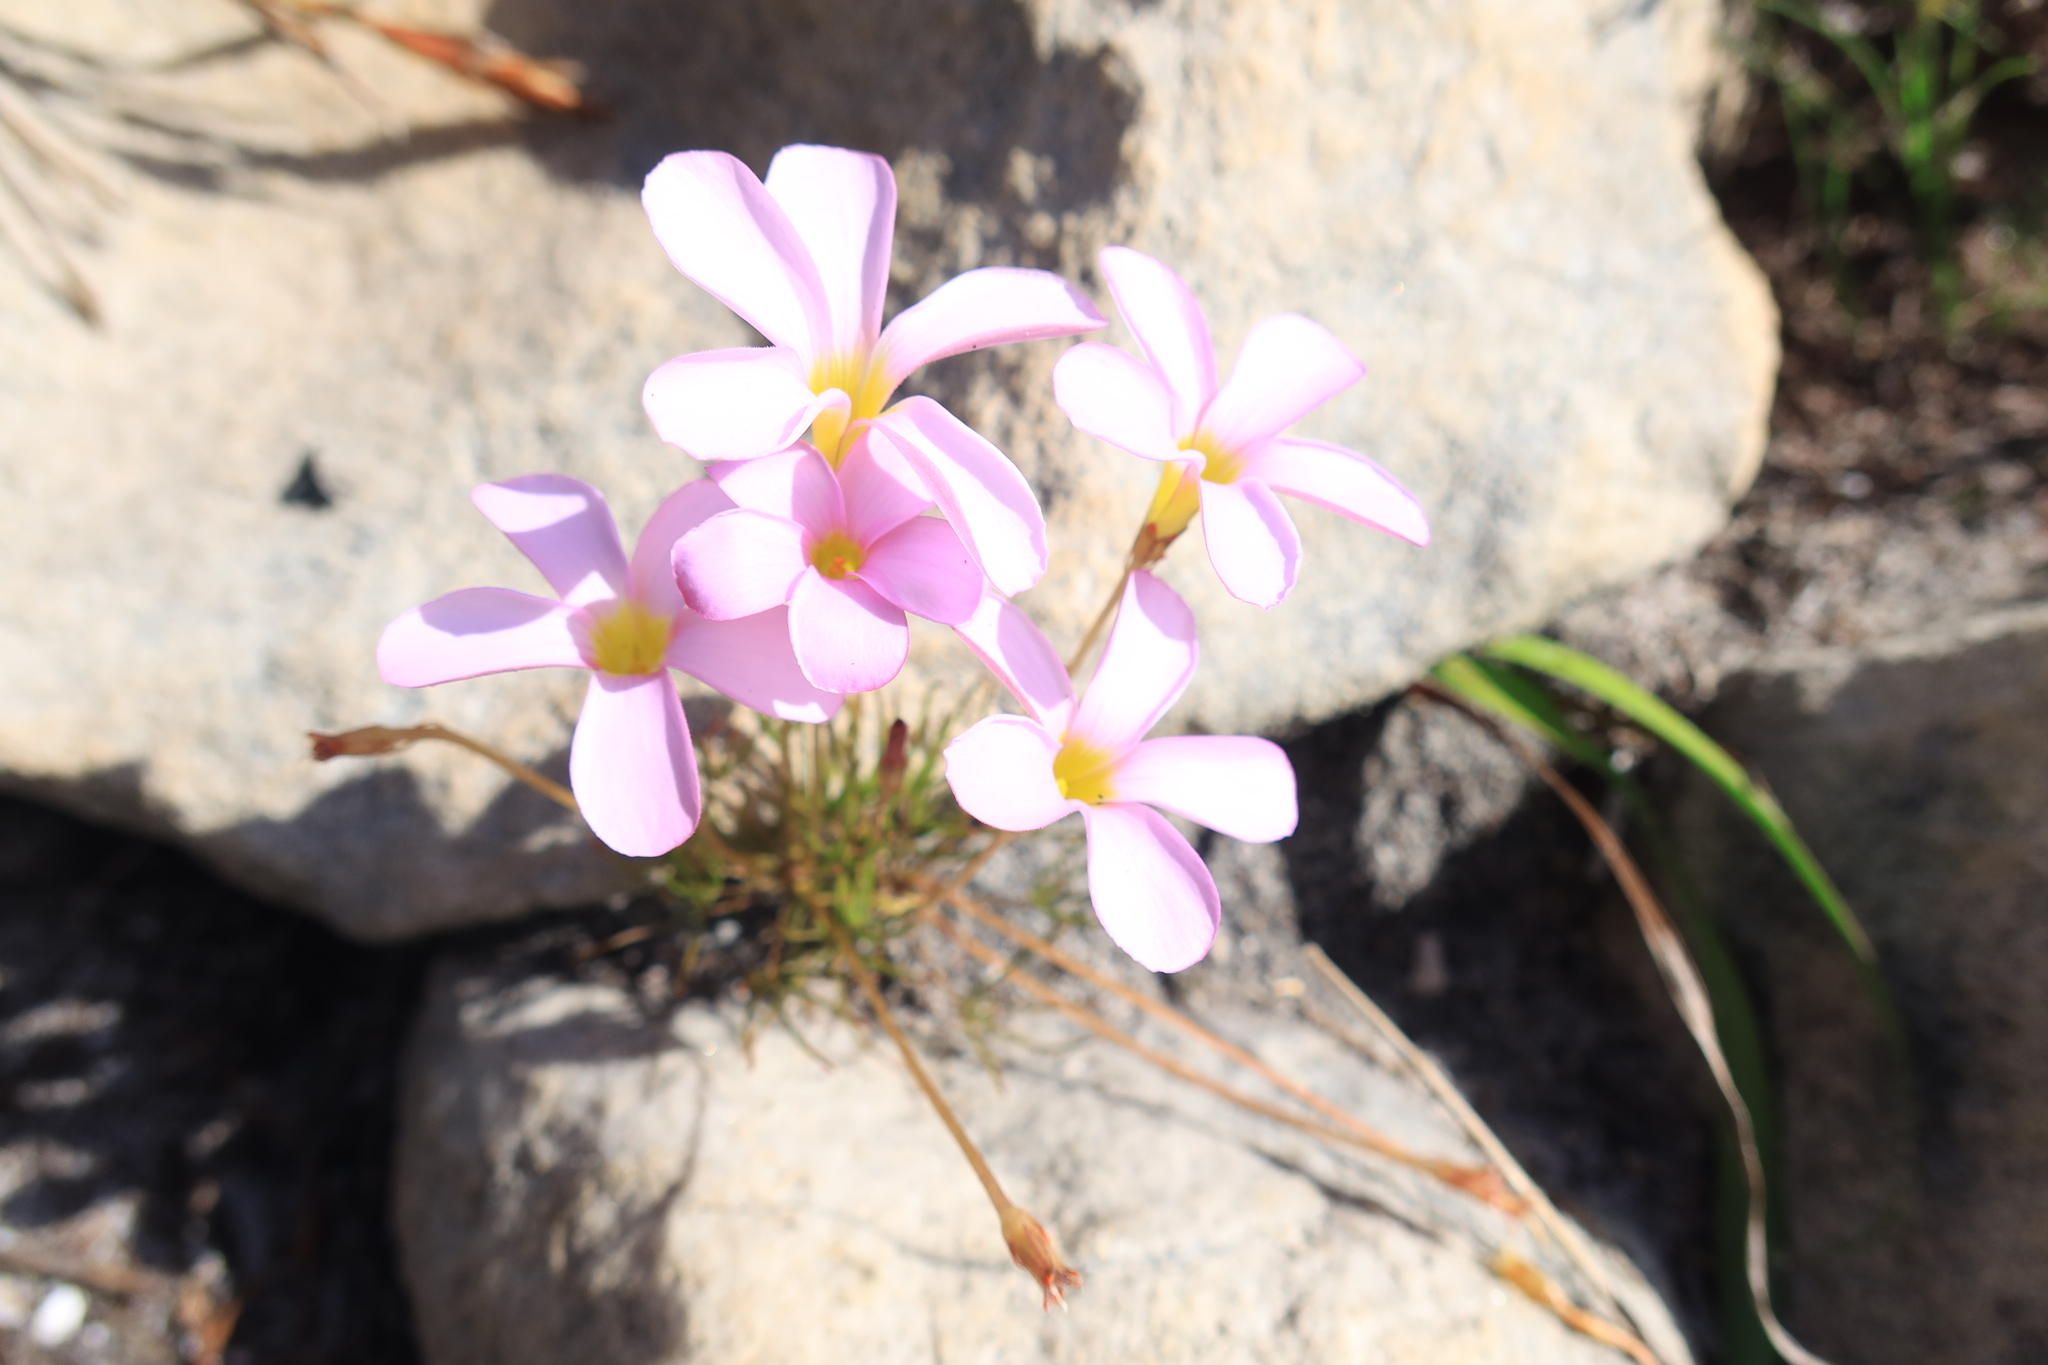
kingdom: Plantae
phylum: Tracheophyta
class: Magnoliopsida
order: Oxalidales
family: Oxalidaceae
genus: Oxalis
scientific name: Oxalis polyphylla
